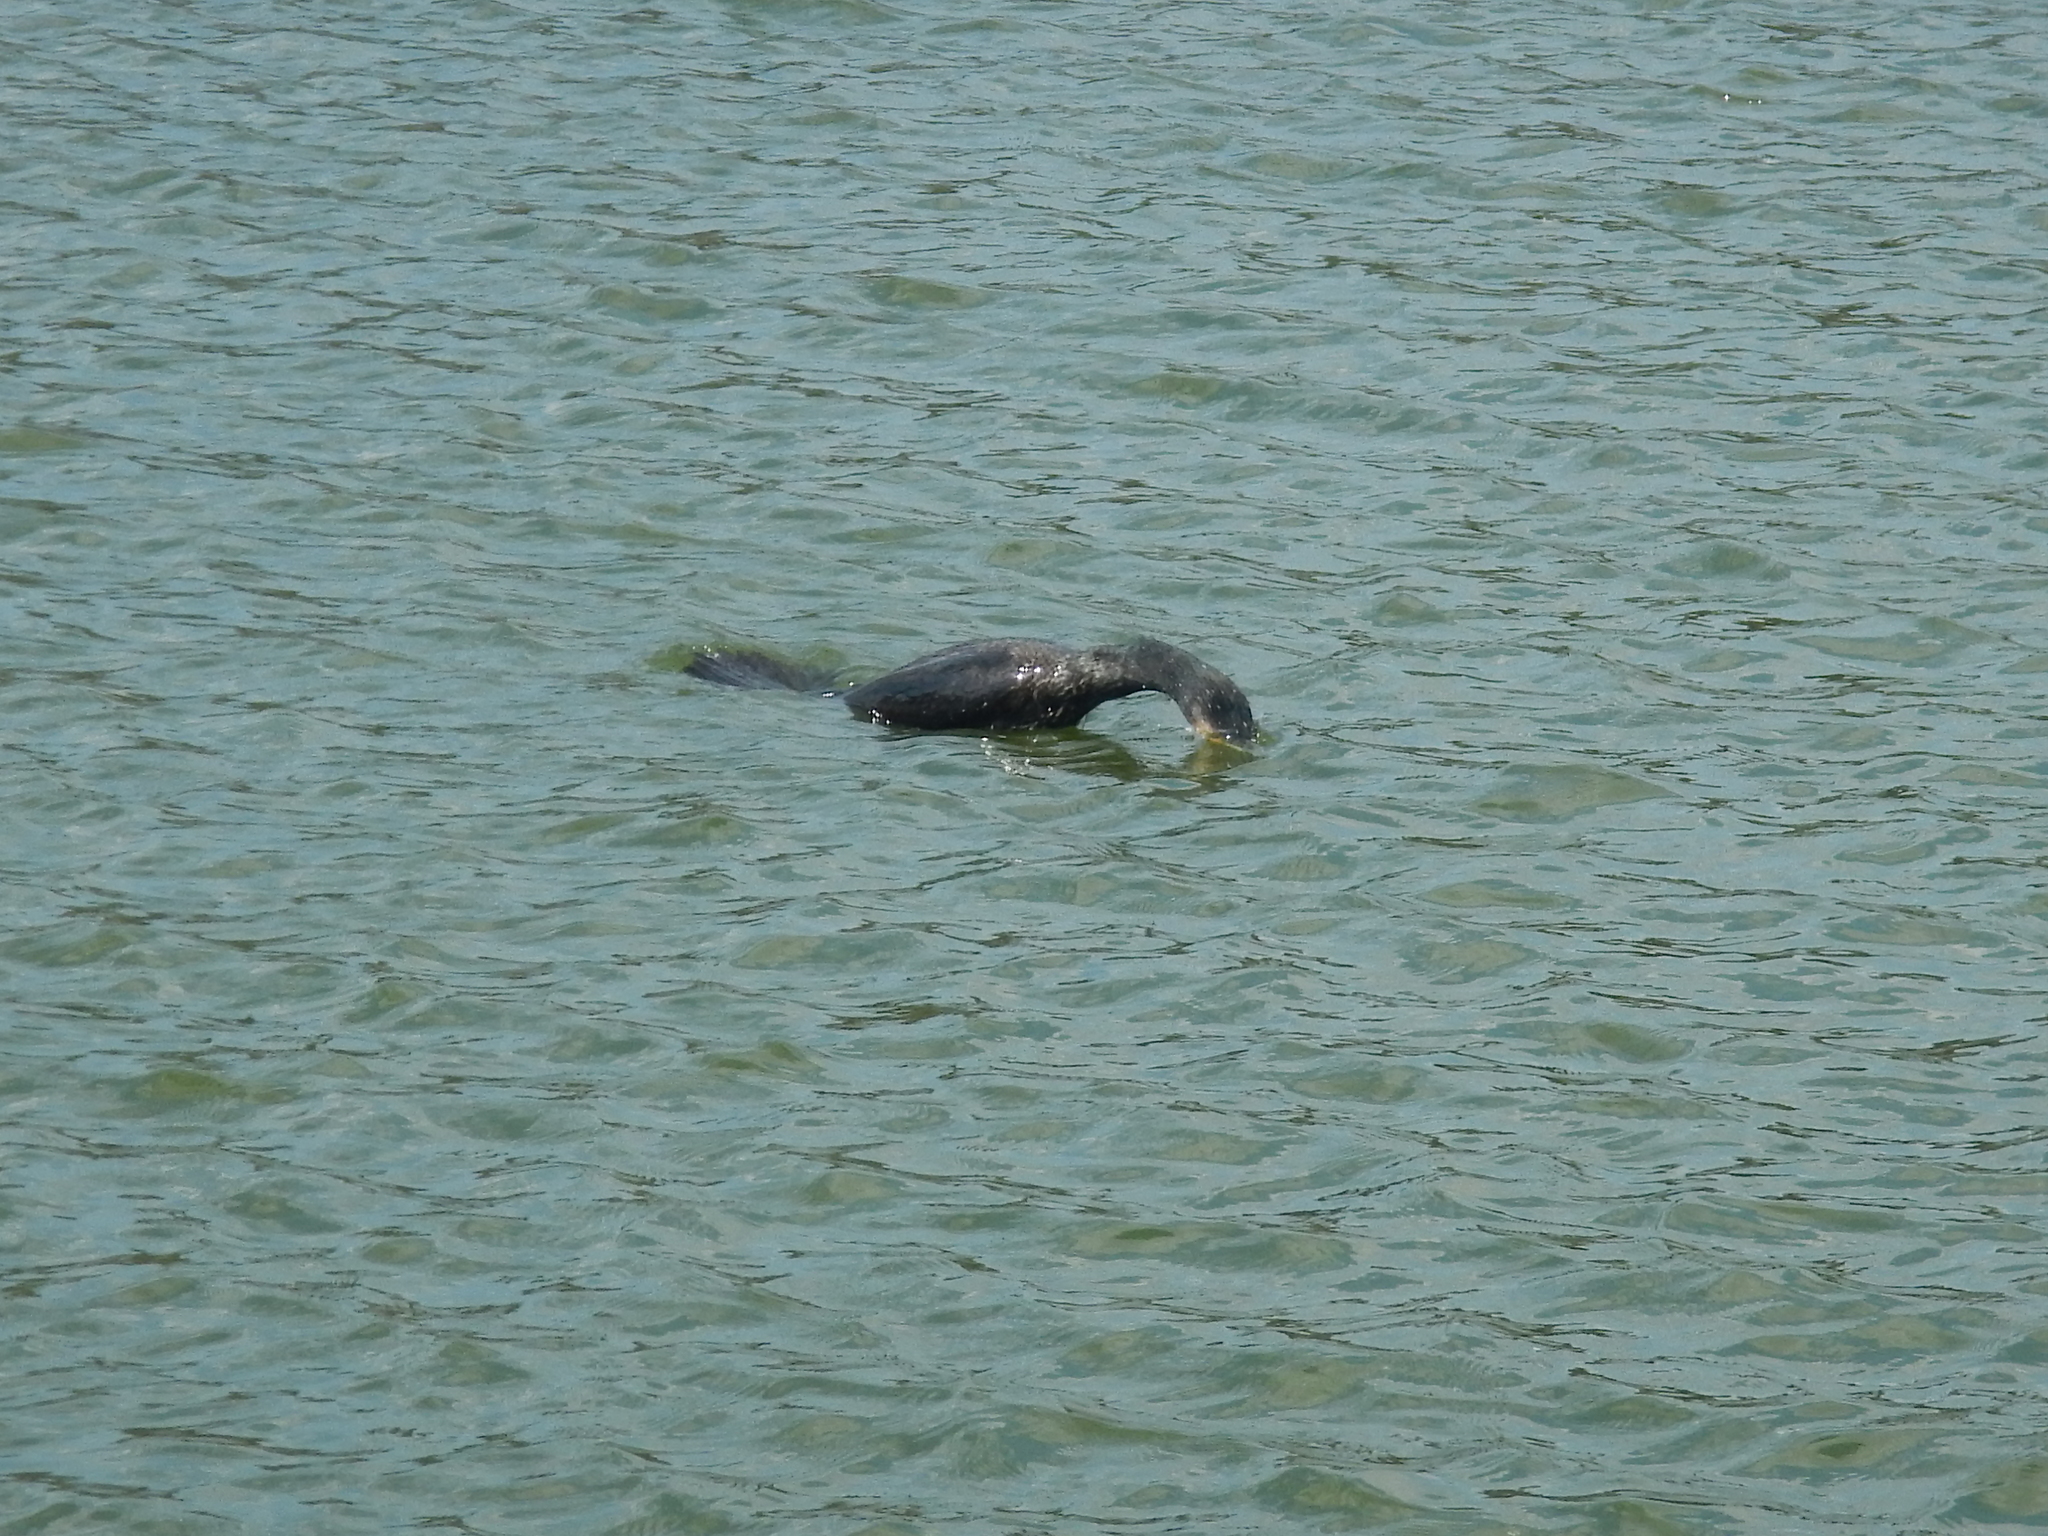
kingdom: Animalia
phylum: Chordata
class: Aves
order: Suliformes
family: Phalacrocoracidae
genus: Phalacrocorax
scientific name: Phalacrocorax carbo
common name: Great cormorant
